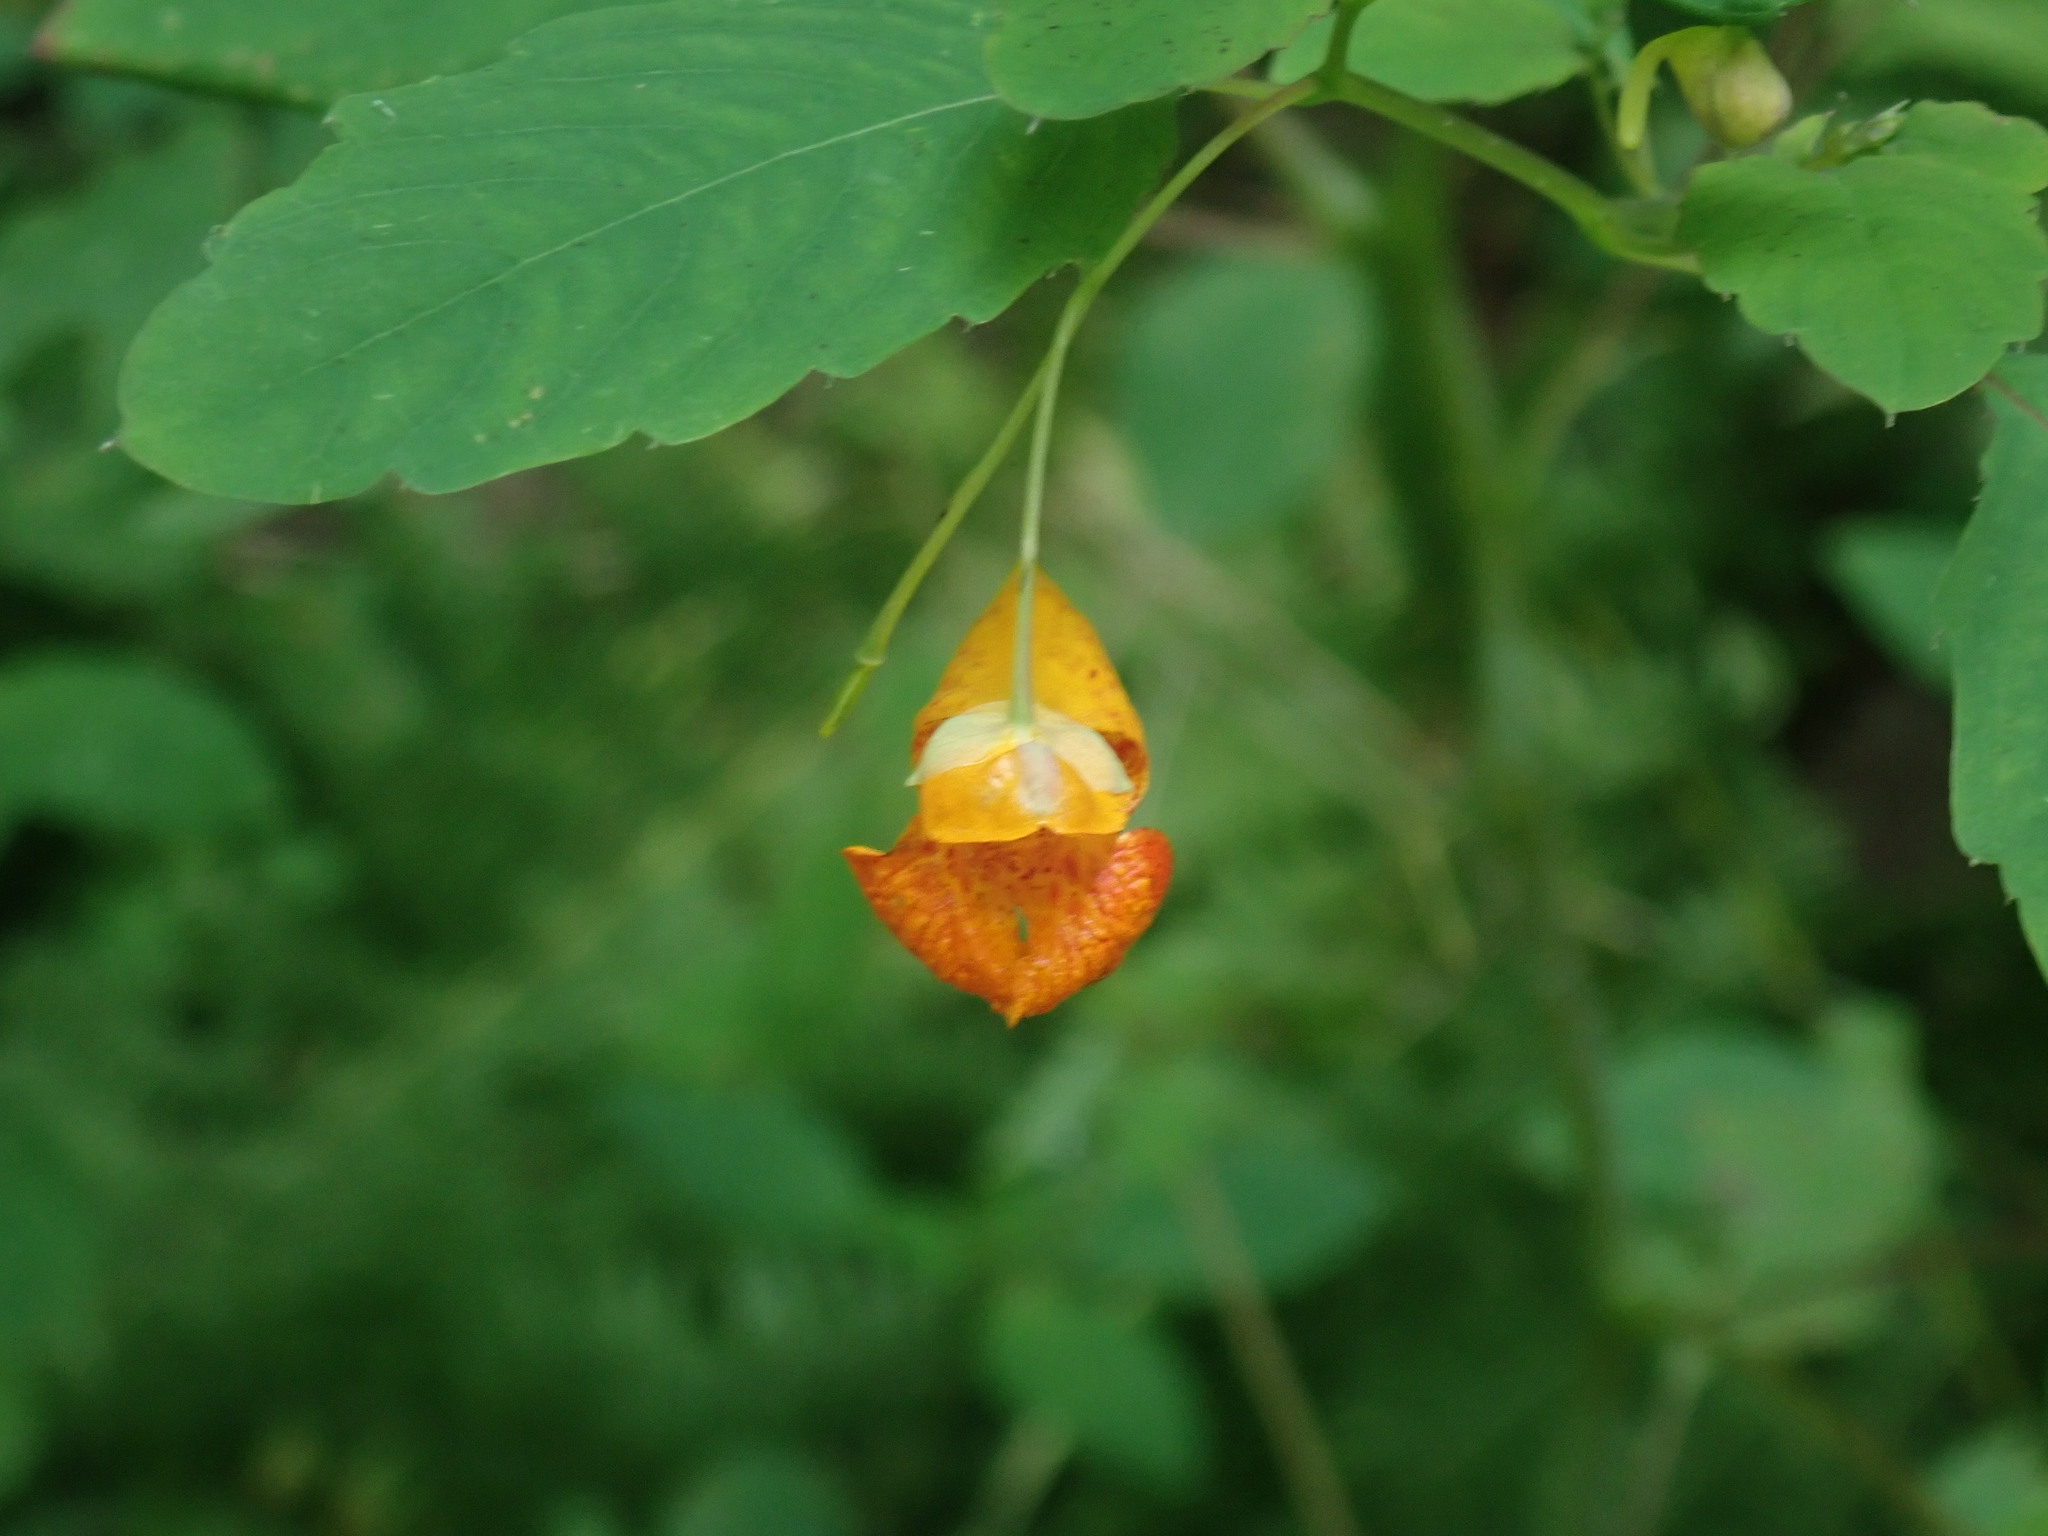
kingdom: Plantae
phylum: Tracheophyta
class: Magnoliopsida
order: Ericales
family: Balsaminaceae
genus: Impatiens
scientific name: Impatiens capensis
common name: Orange balsam
